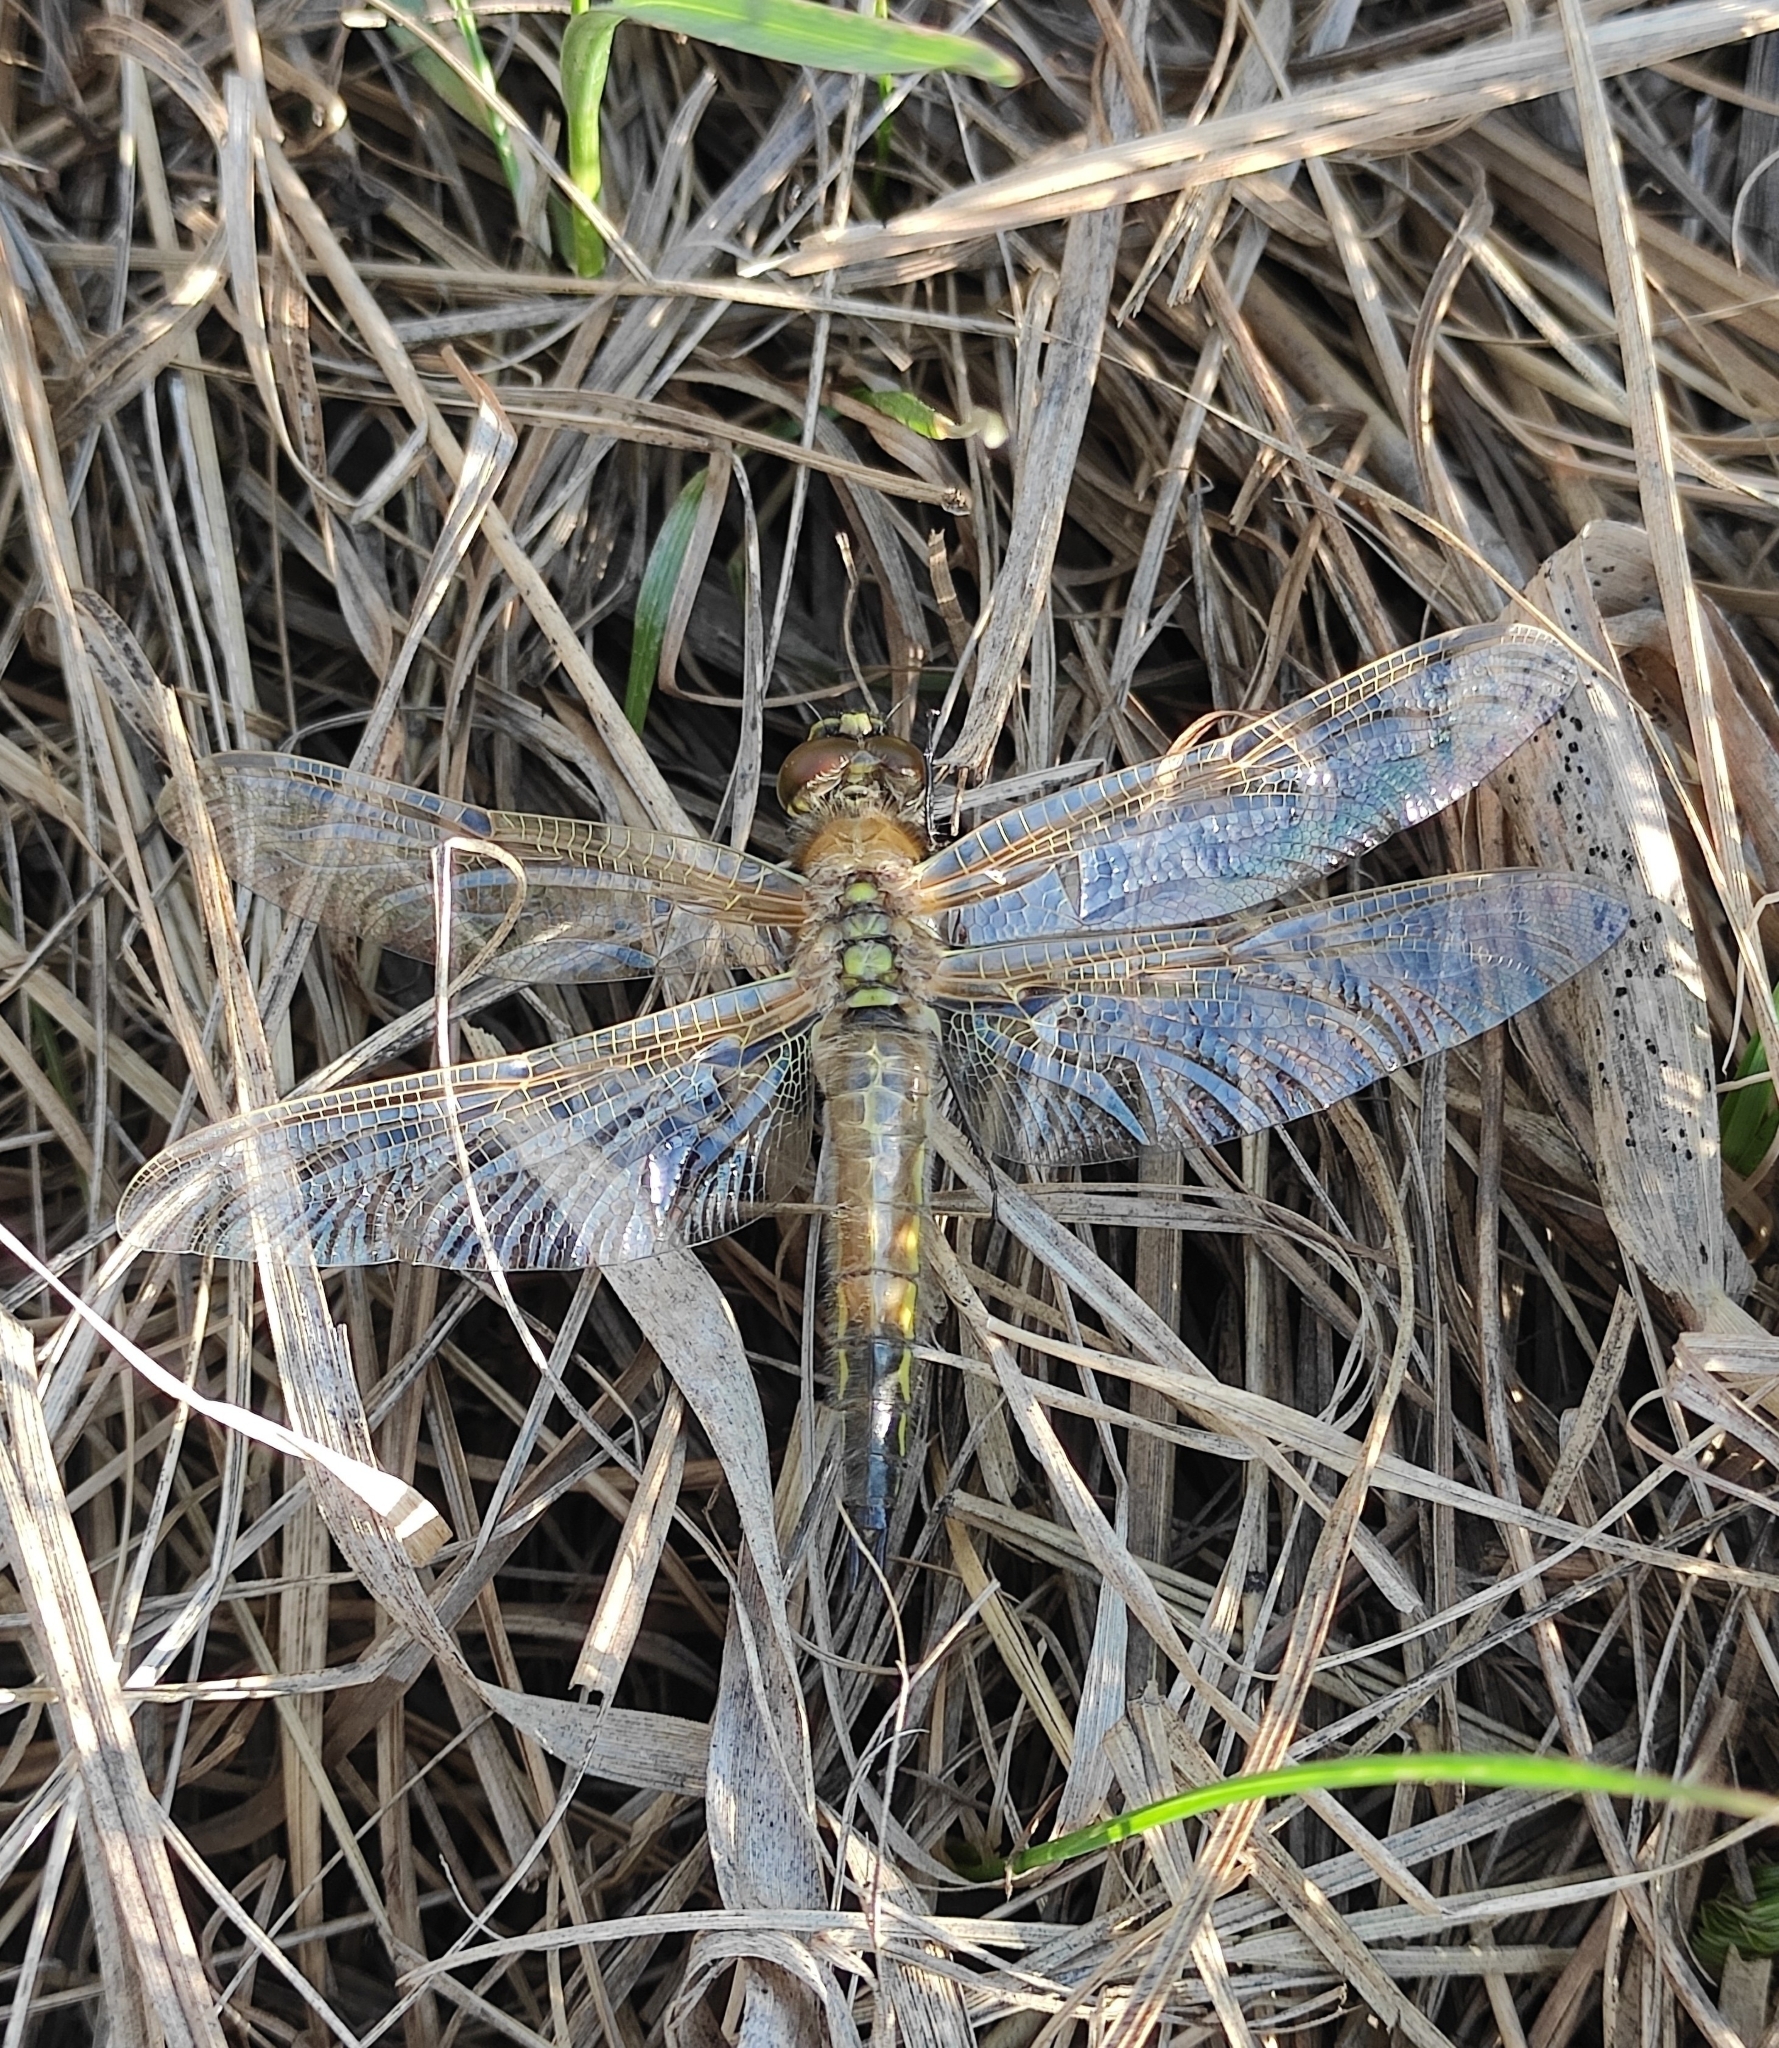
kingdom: Animalia
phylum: Arthropoda
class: Insecta
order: Odonata
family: Libellulidae
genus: Libellula
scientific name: Libellula quadrimaculata
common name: Four-spotted chaser
